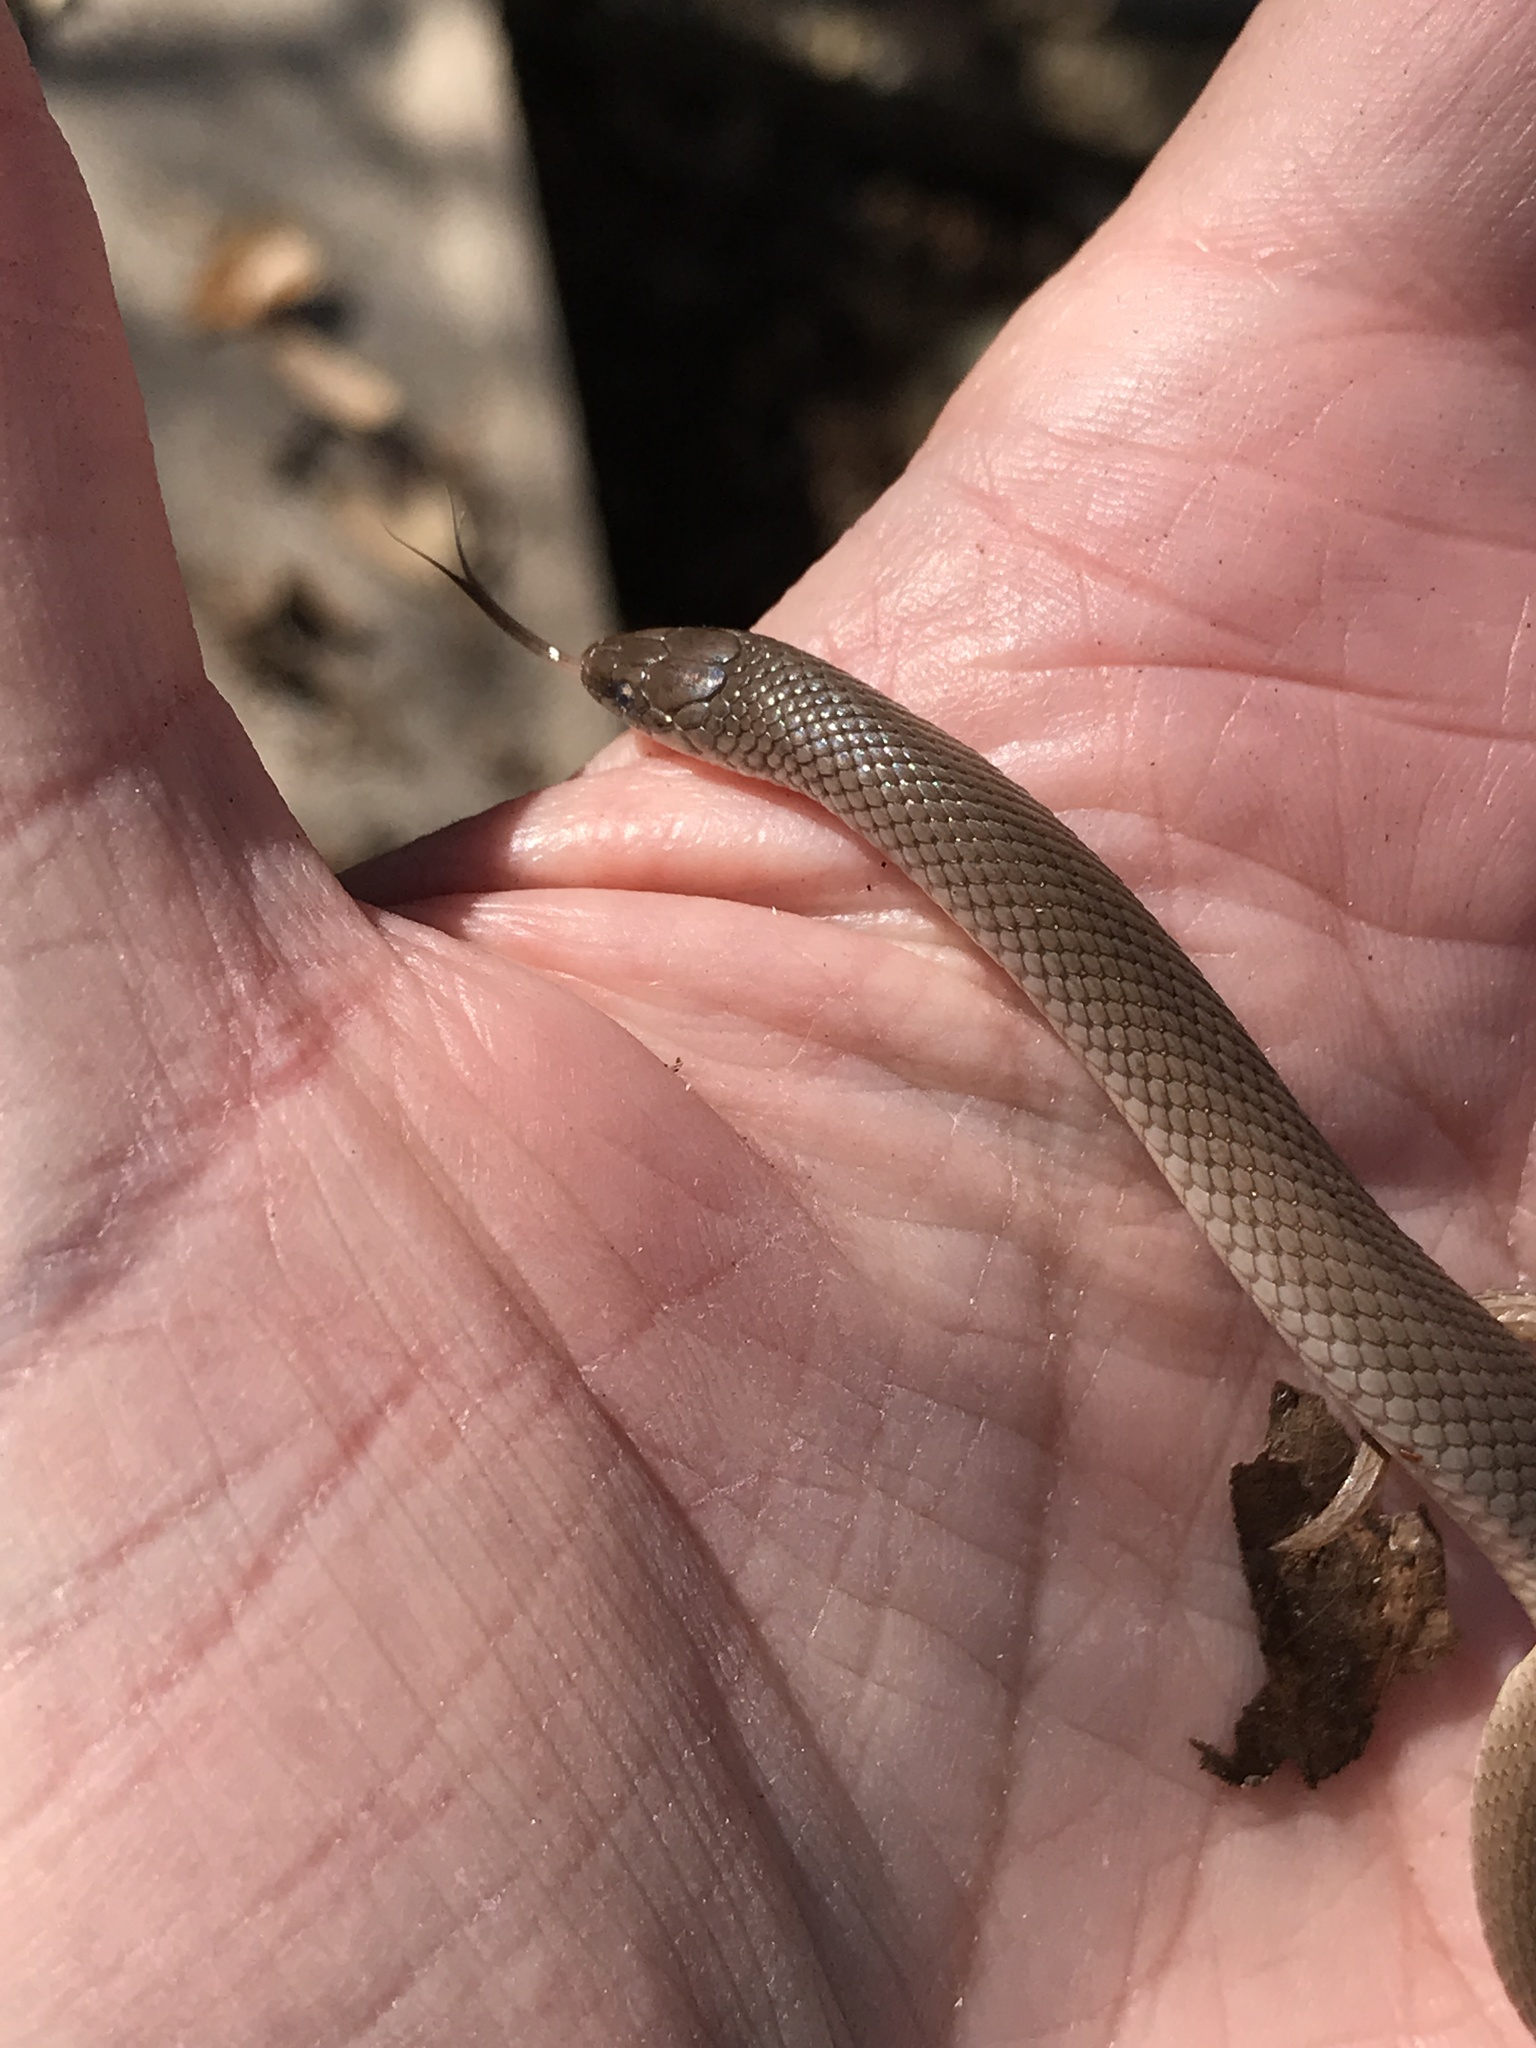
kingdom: Animalia
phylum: Chordata
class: Squamata
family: Colubridae
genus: Haldea
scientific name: Haldea striatula
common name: Rough earth snake
